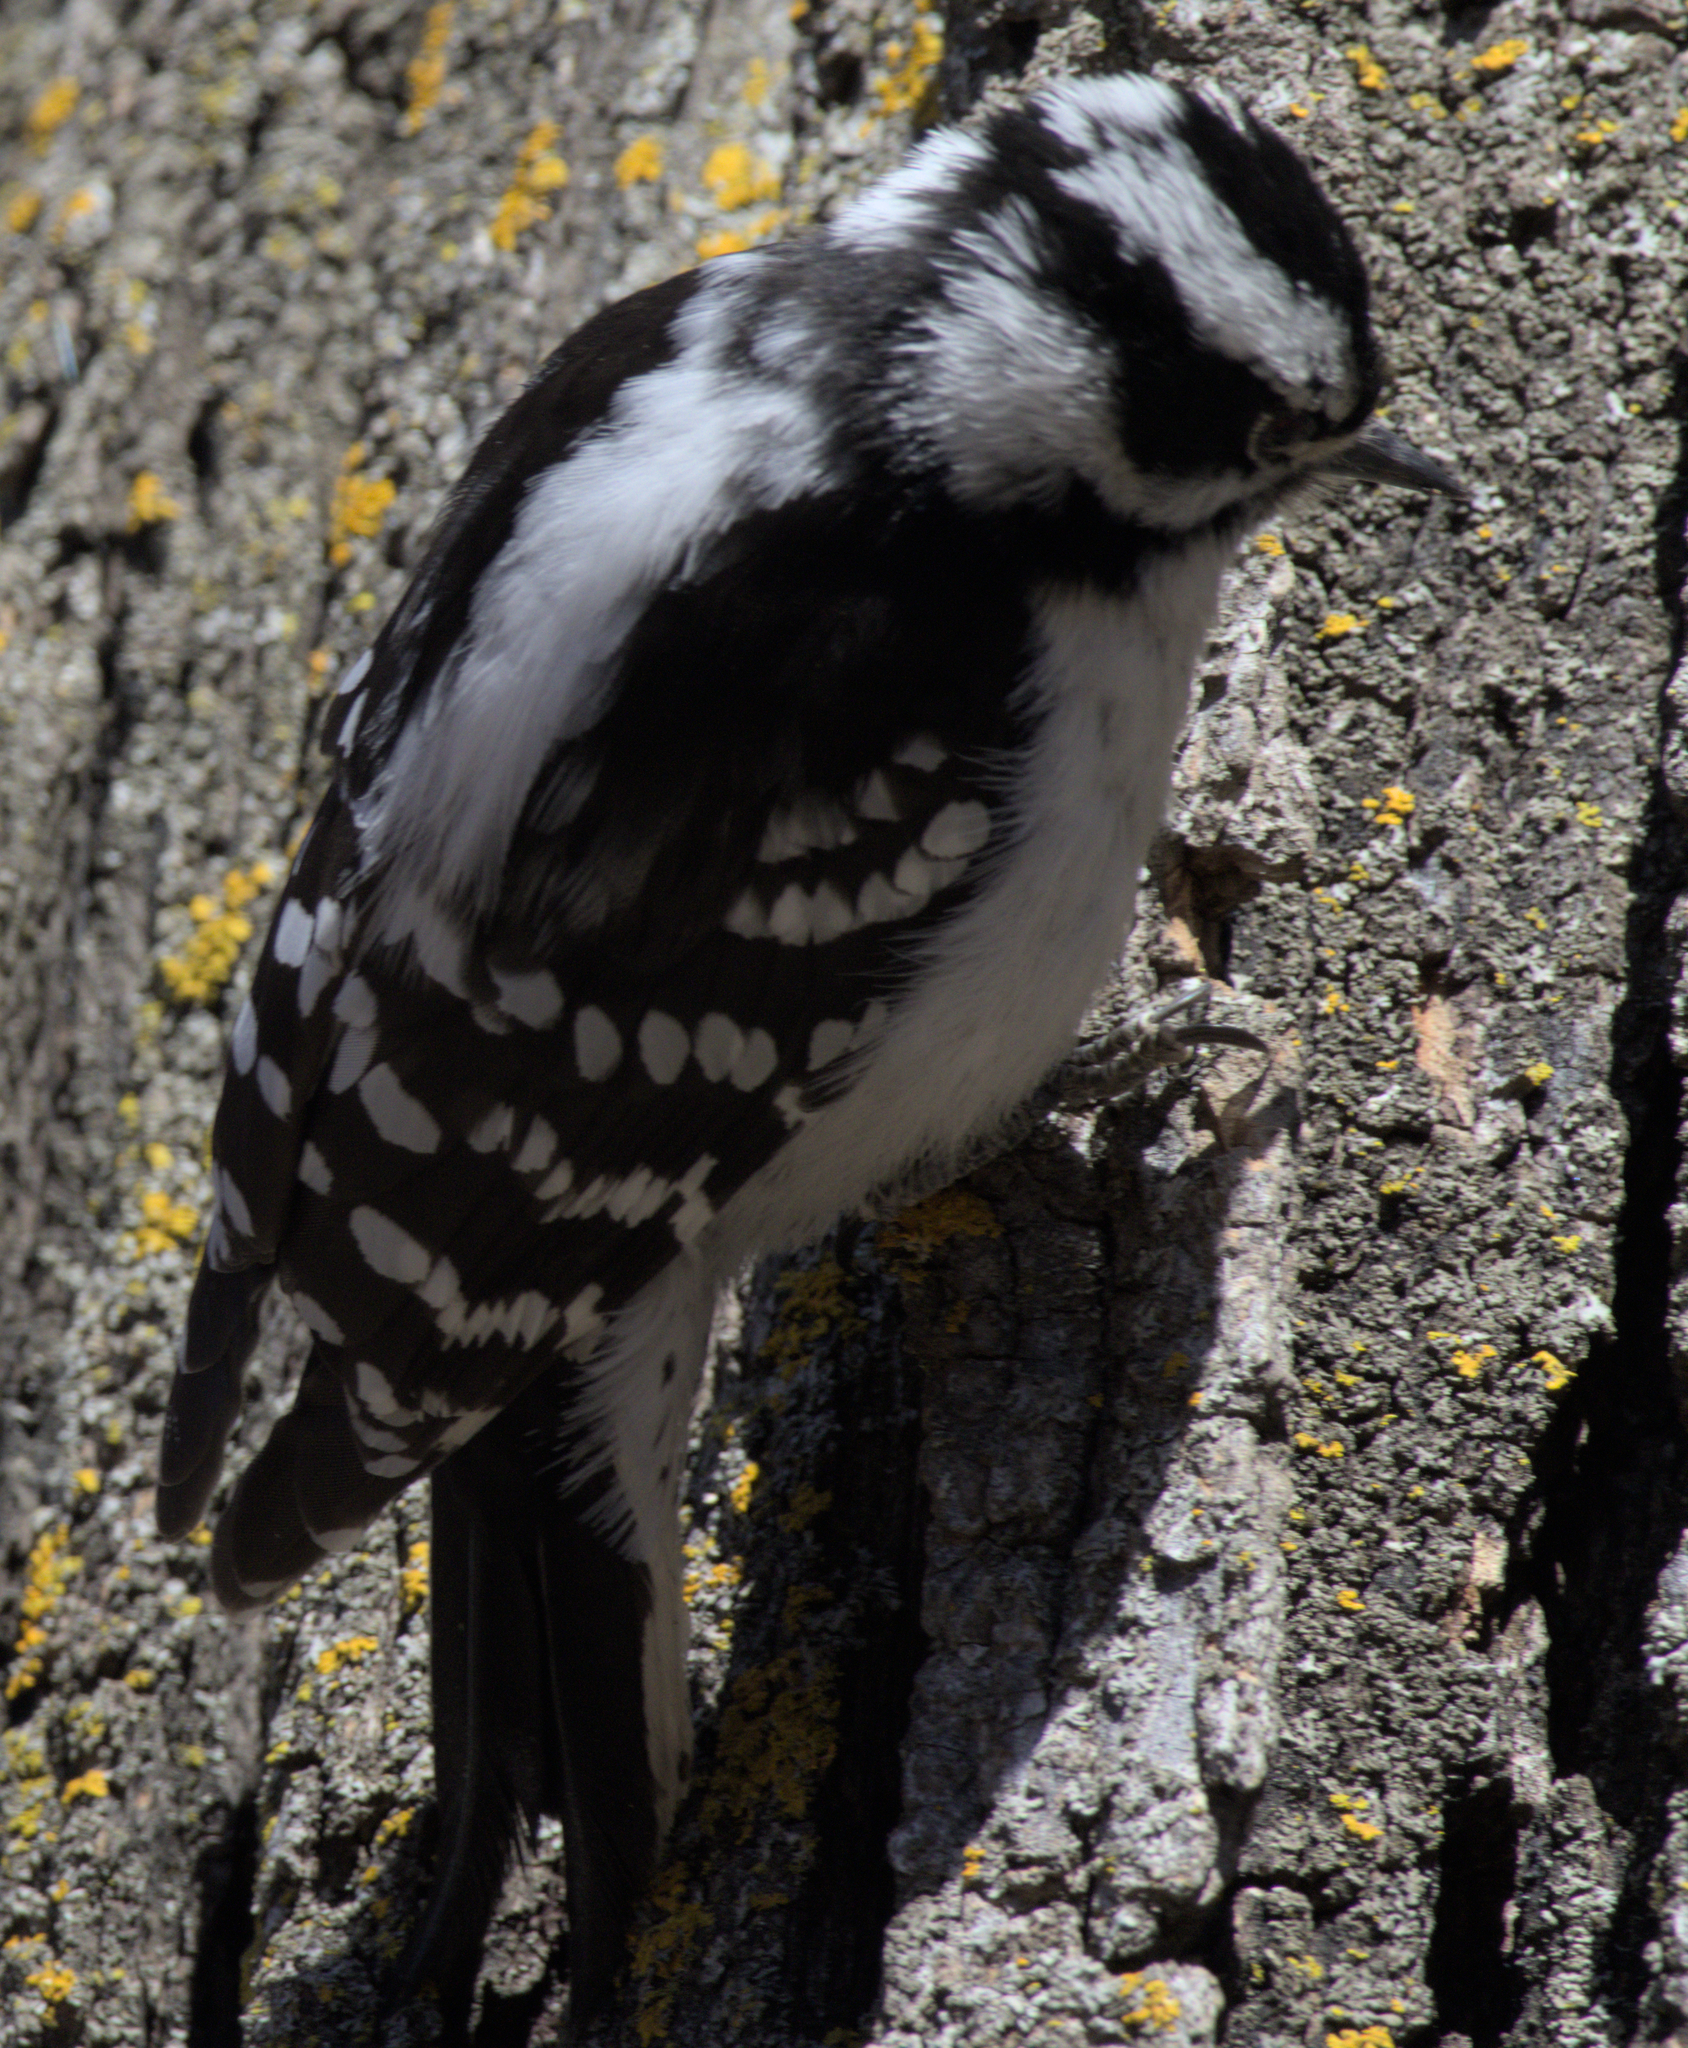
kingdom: Animalia
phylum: Chordata
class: Aves
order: Piciformes
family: Picidae
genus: Dryobates
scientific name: Dryobates pubescens
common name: Downy woodpecker
